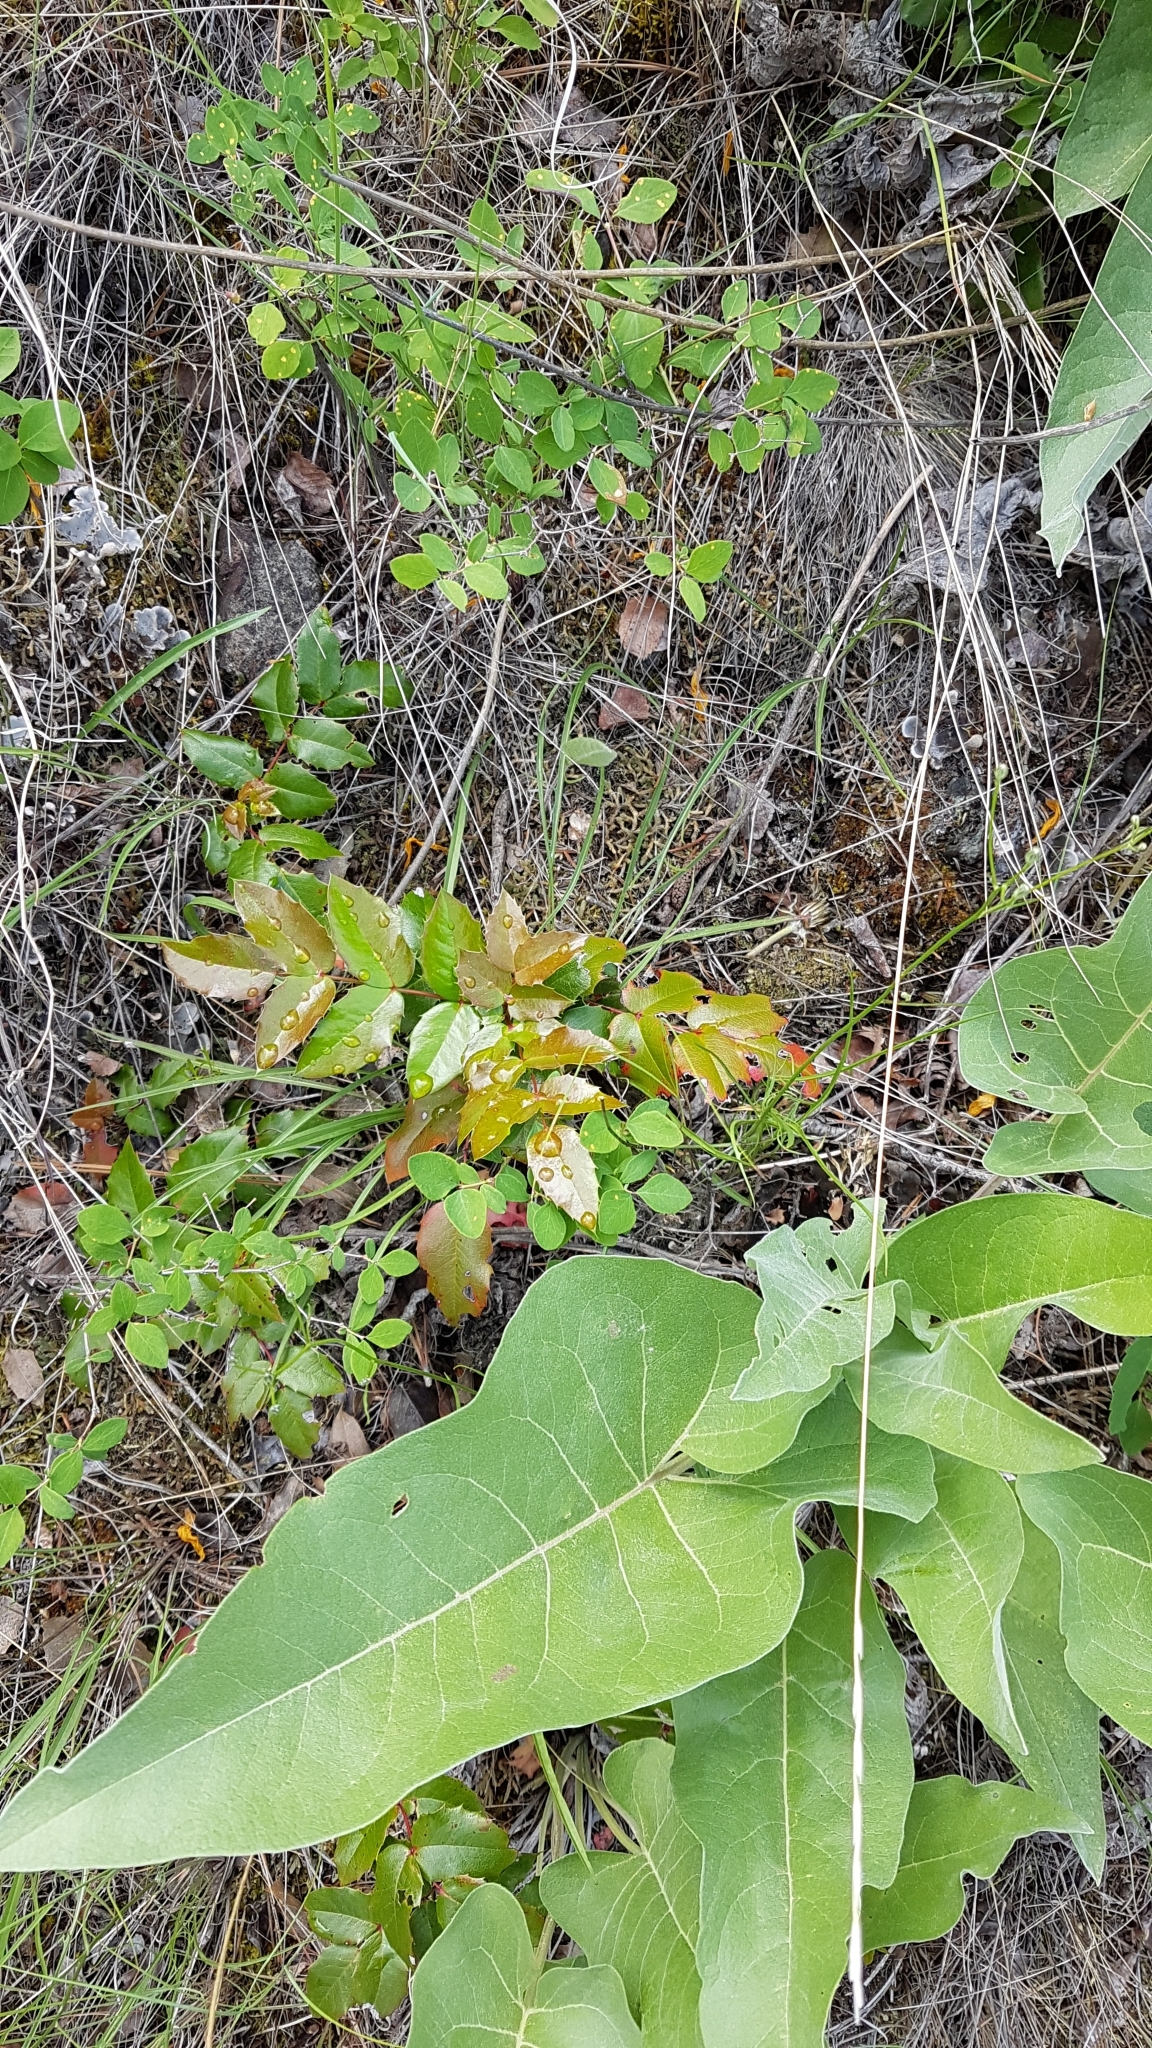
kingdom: Plantae
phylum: Tracheophyta
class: Magnoliopsida
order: Ranunculales
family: Berberidaceae
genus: Mahonia
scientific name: Mahonia aquifolium
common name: Oregon-grape
